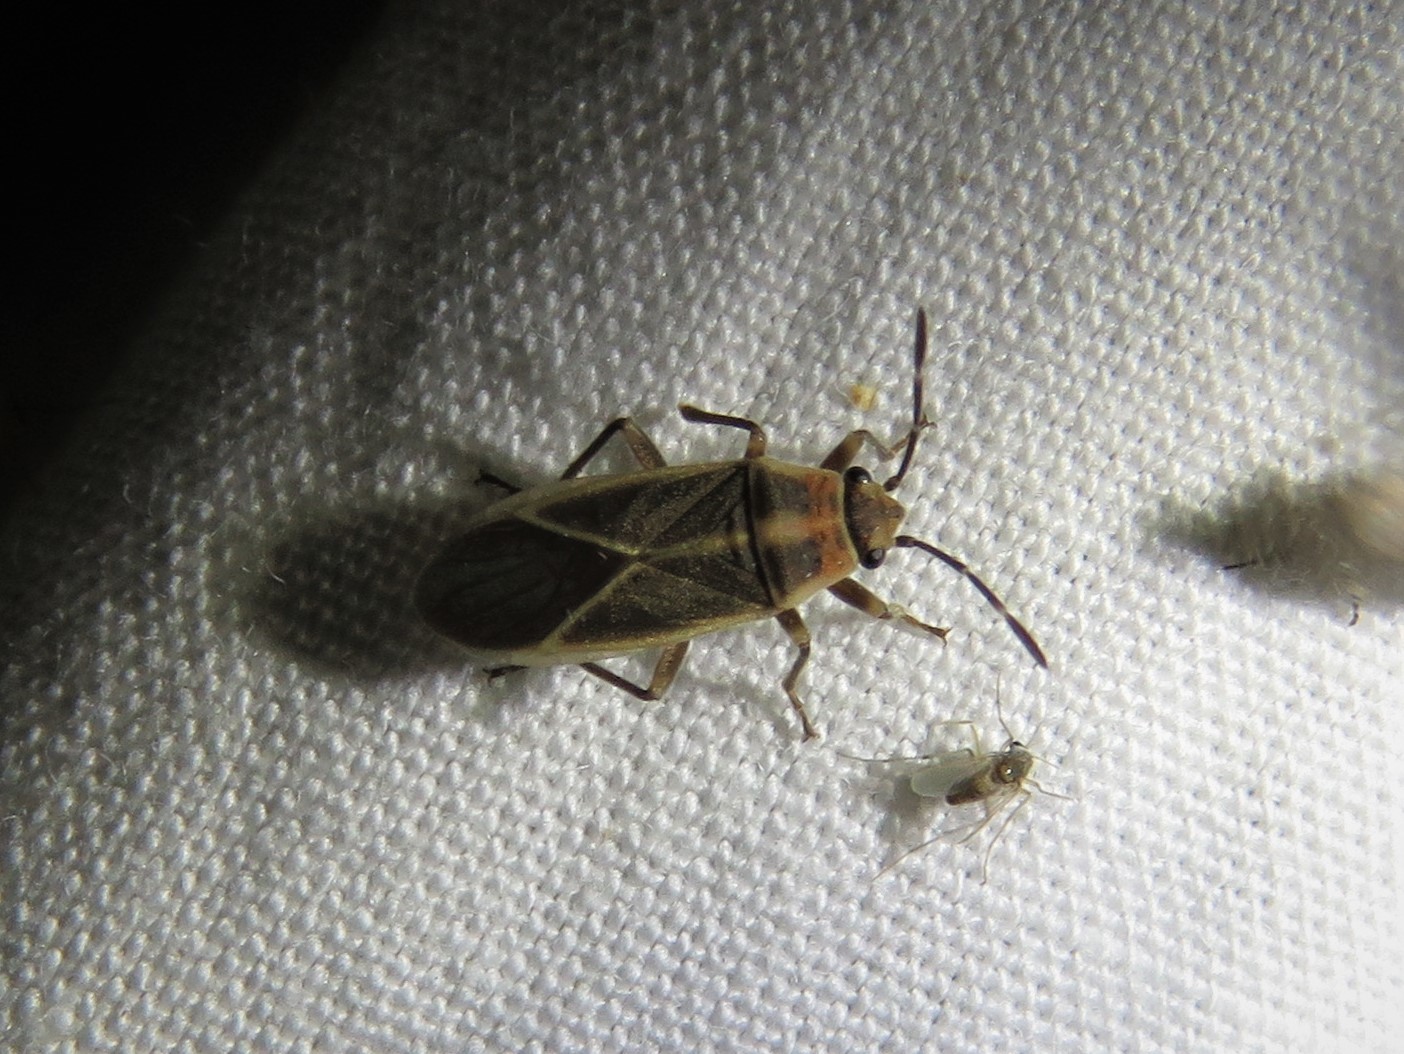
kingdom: Animalia
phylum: Arthropoda
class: Insecta
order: Hemiptera
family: Lygaeidae
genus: Ochrimnus
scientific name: Ochrimnus mimulus
